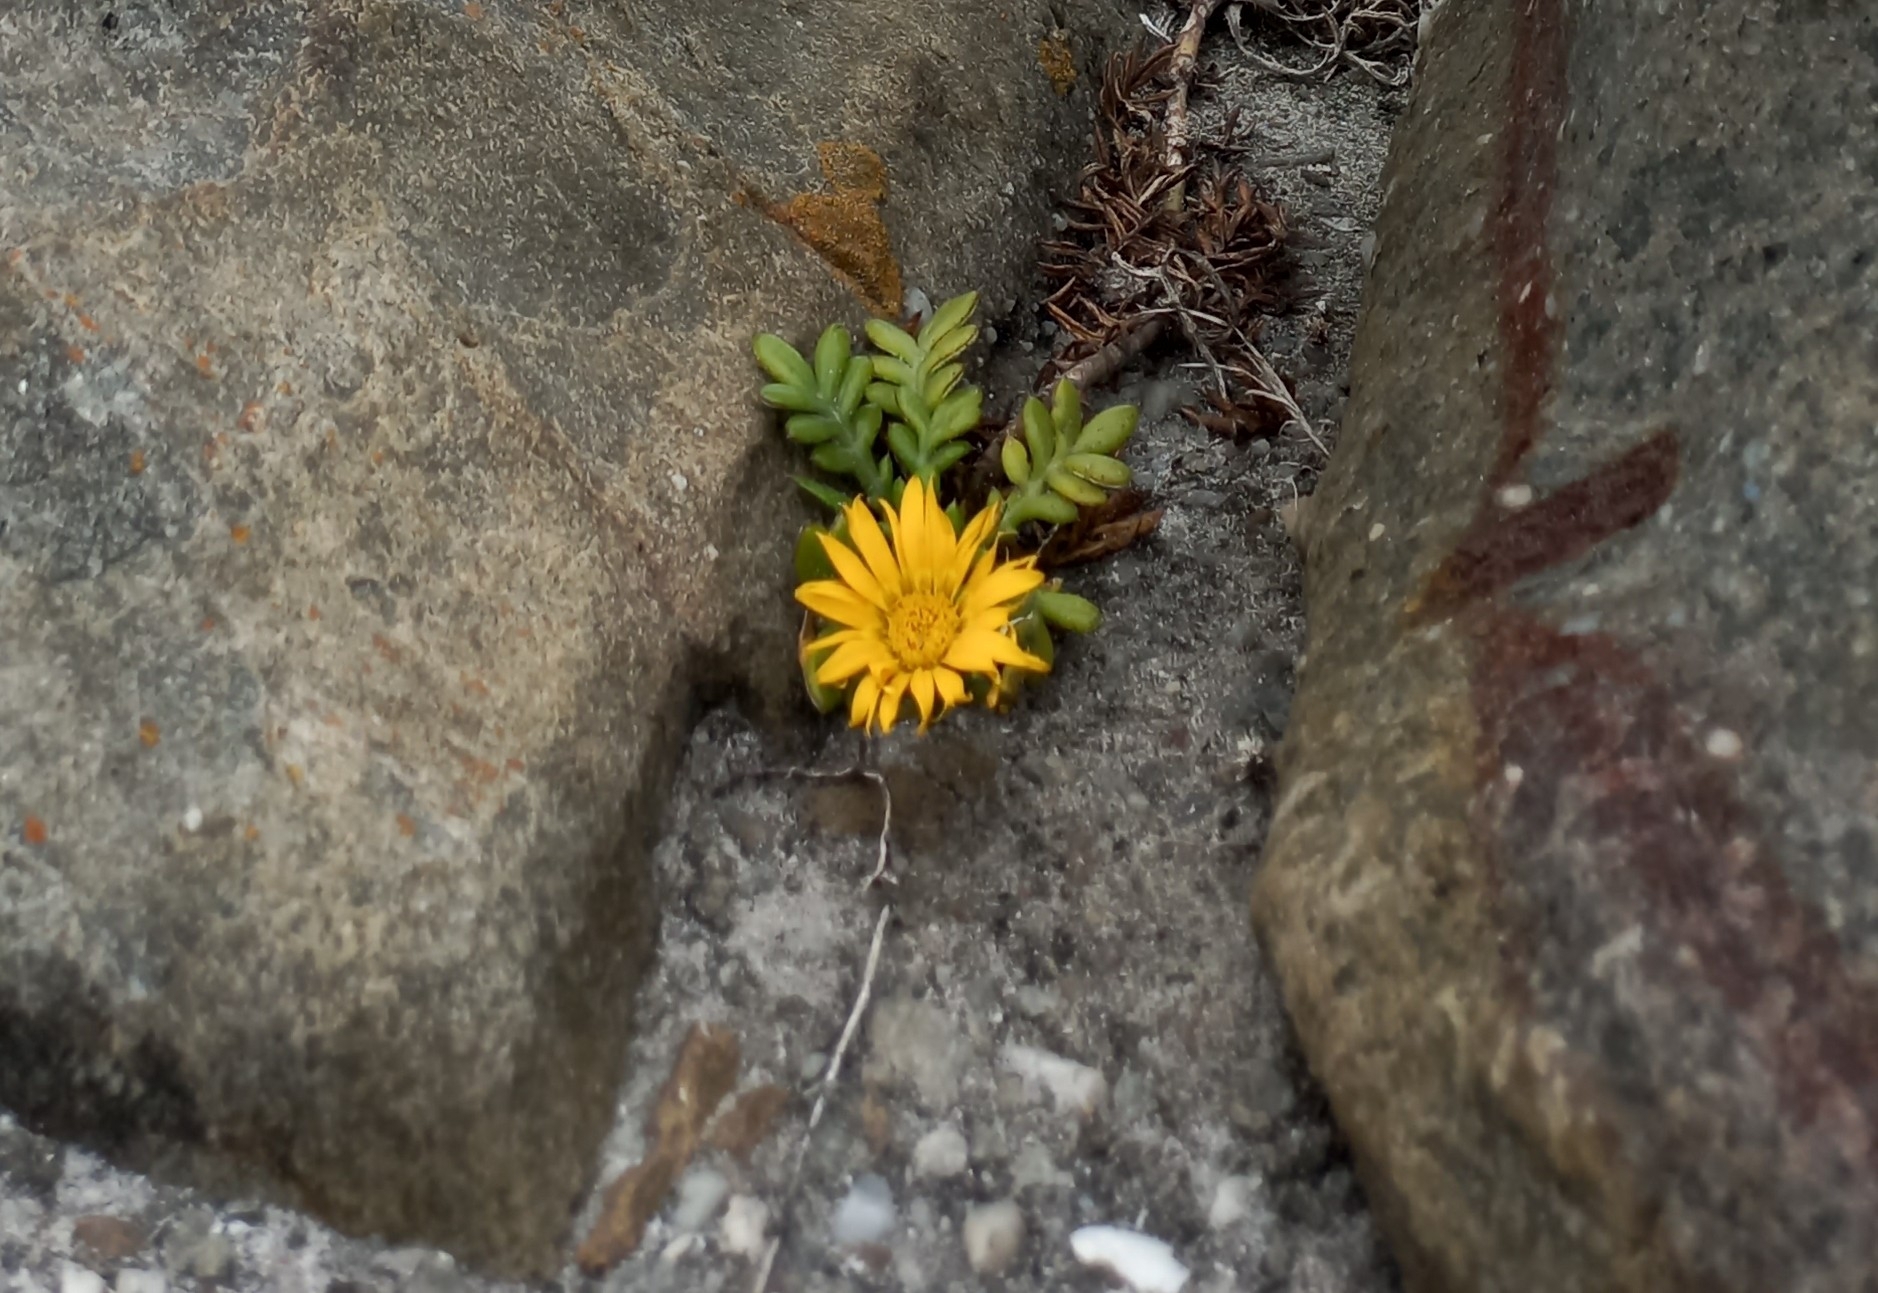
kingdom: Plantae
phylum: Tracheophyta
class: Magnoliopsida
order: Asterales
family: Asteraceae
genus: Gazania
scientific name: Gazania maritima
